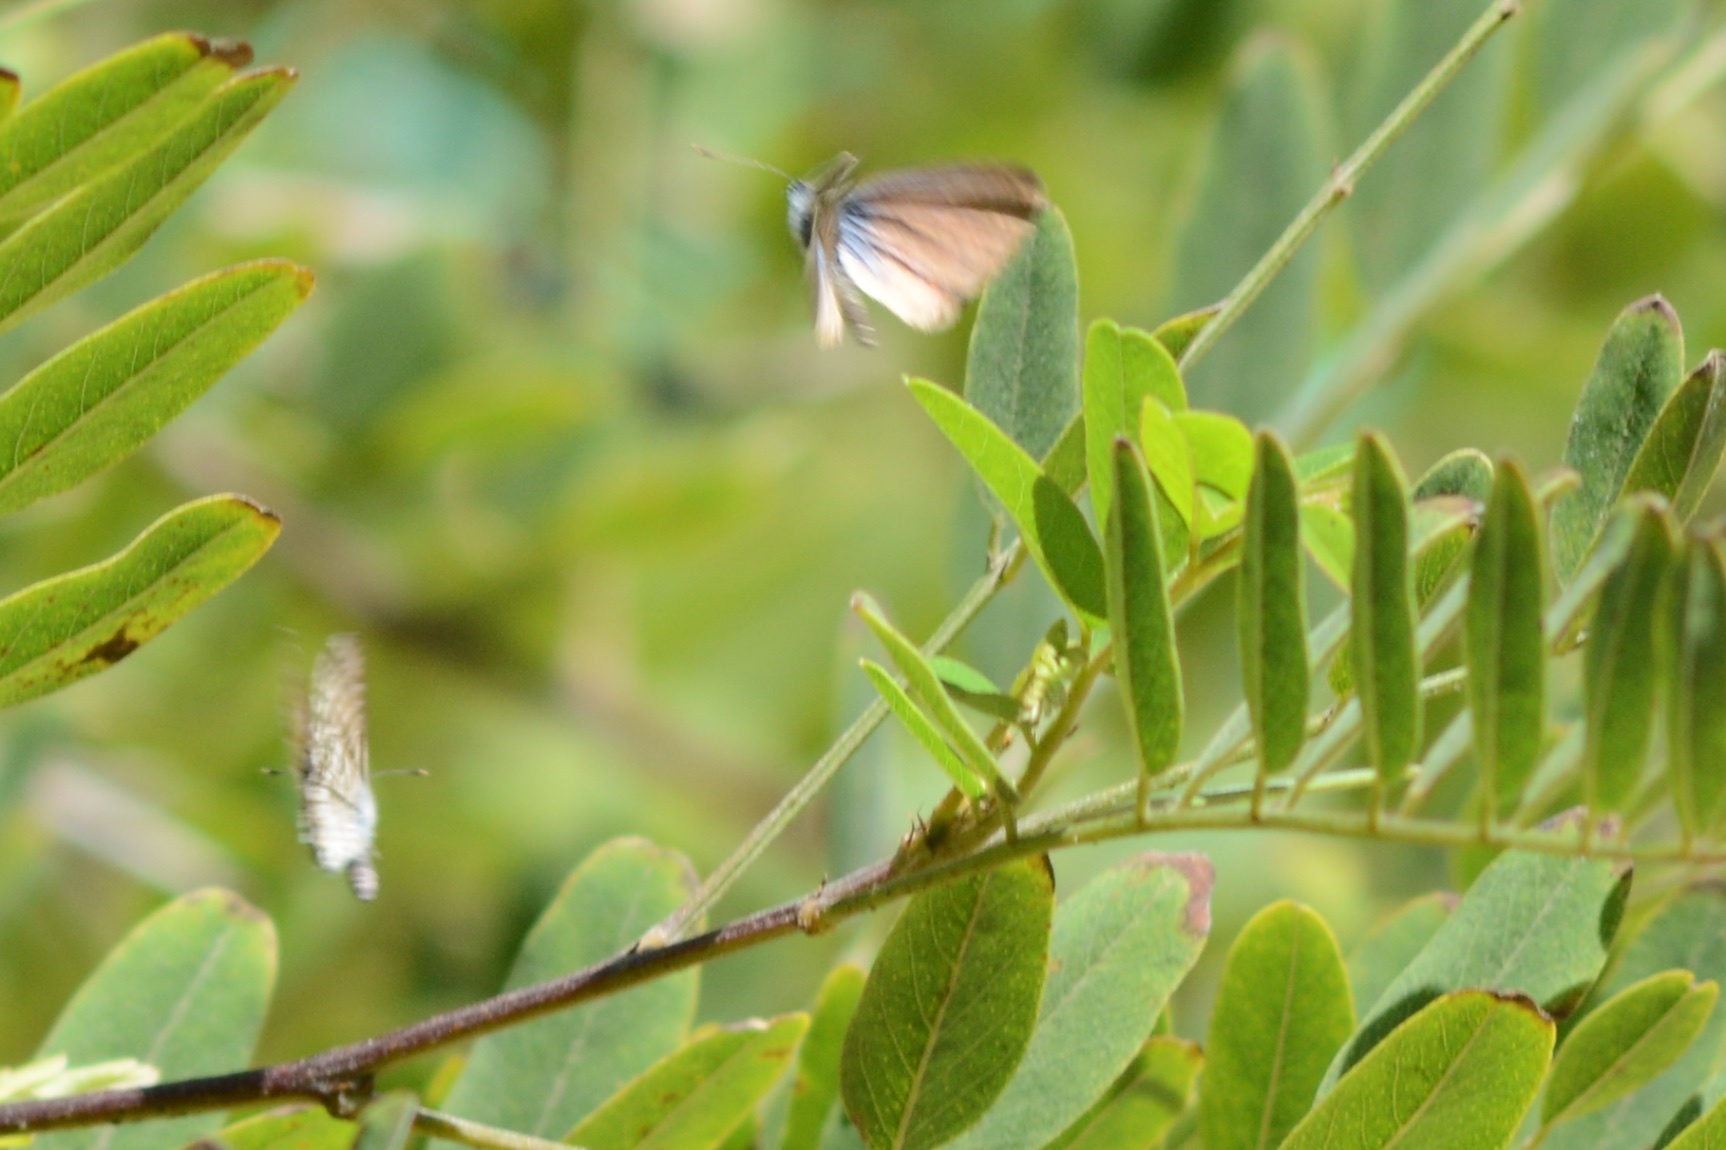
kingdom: Animalia
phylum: Arthropoda
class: Insecta
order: Lepidoptera
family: Lycaenidae
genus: Leptotes
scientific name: Leptotes marina
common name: Marine blue
